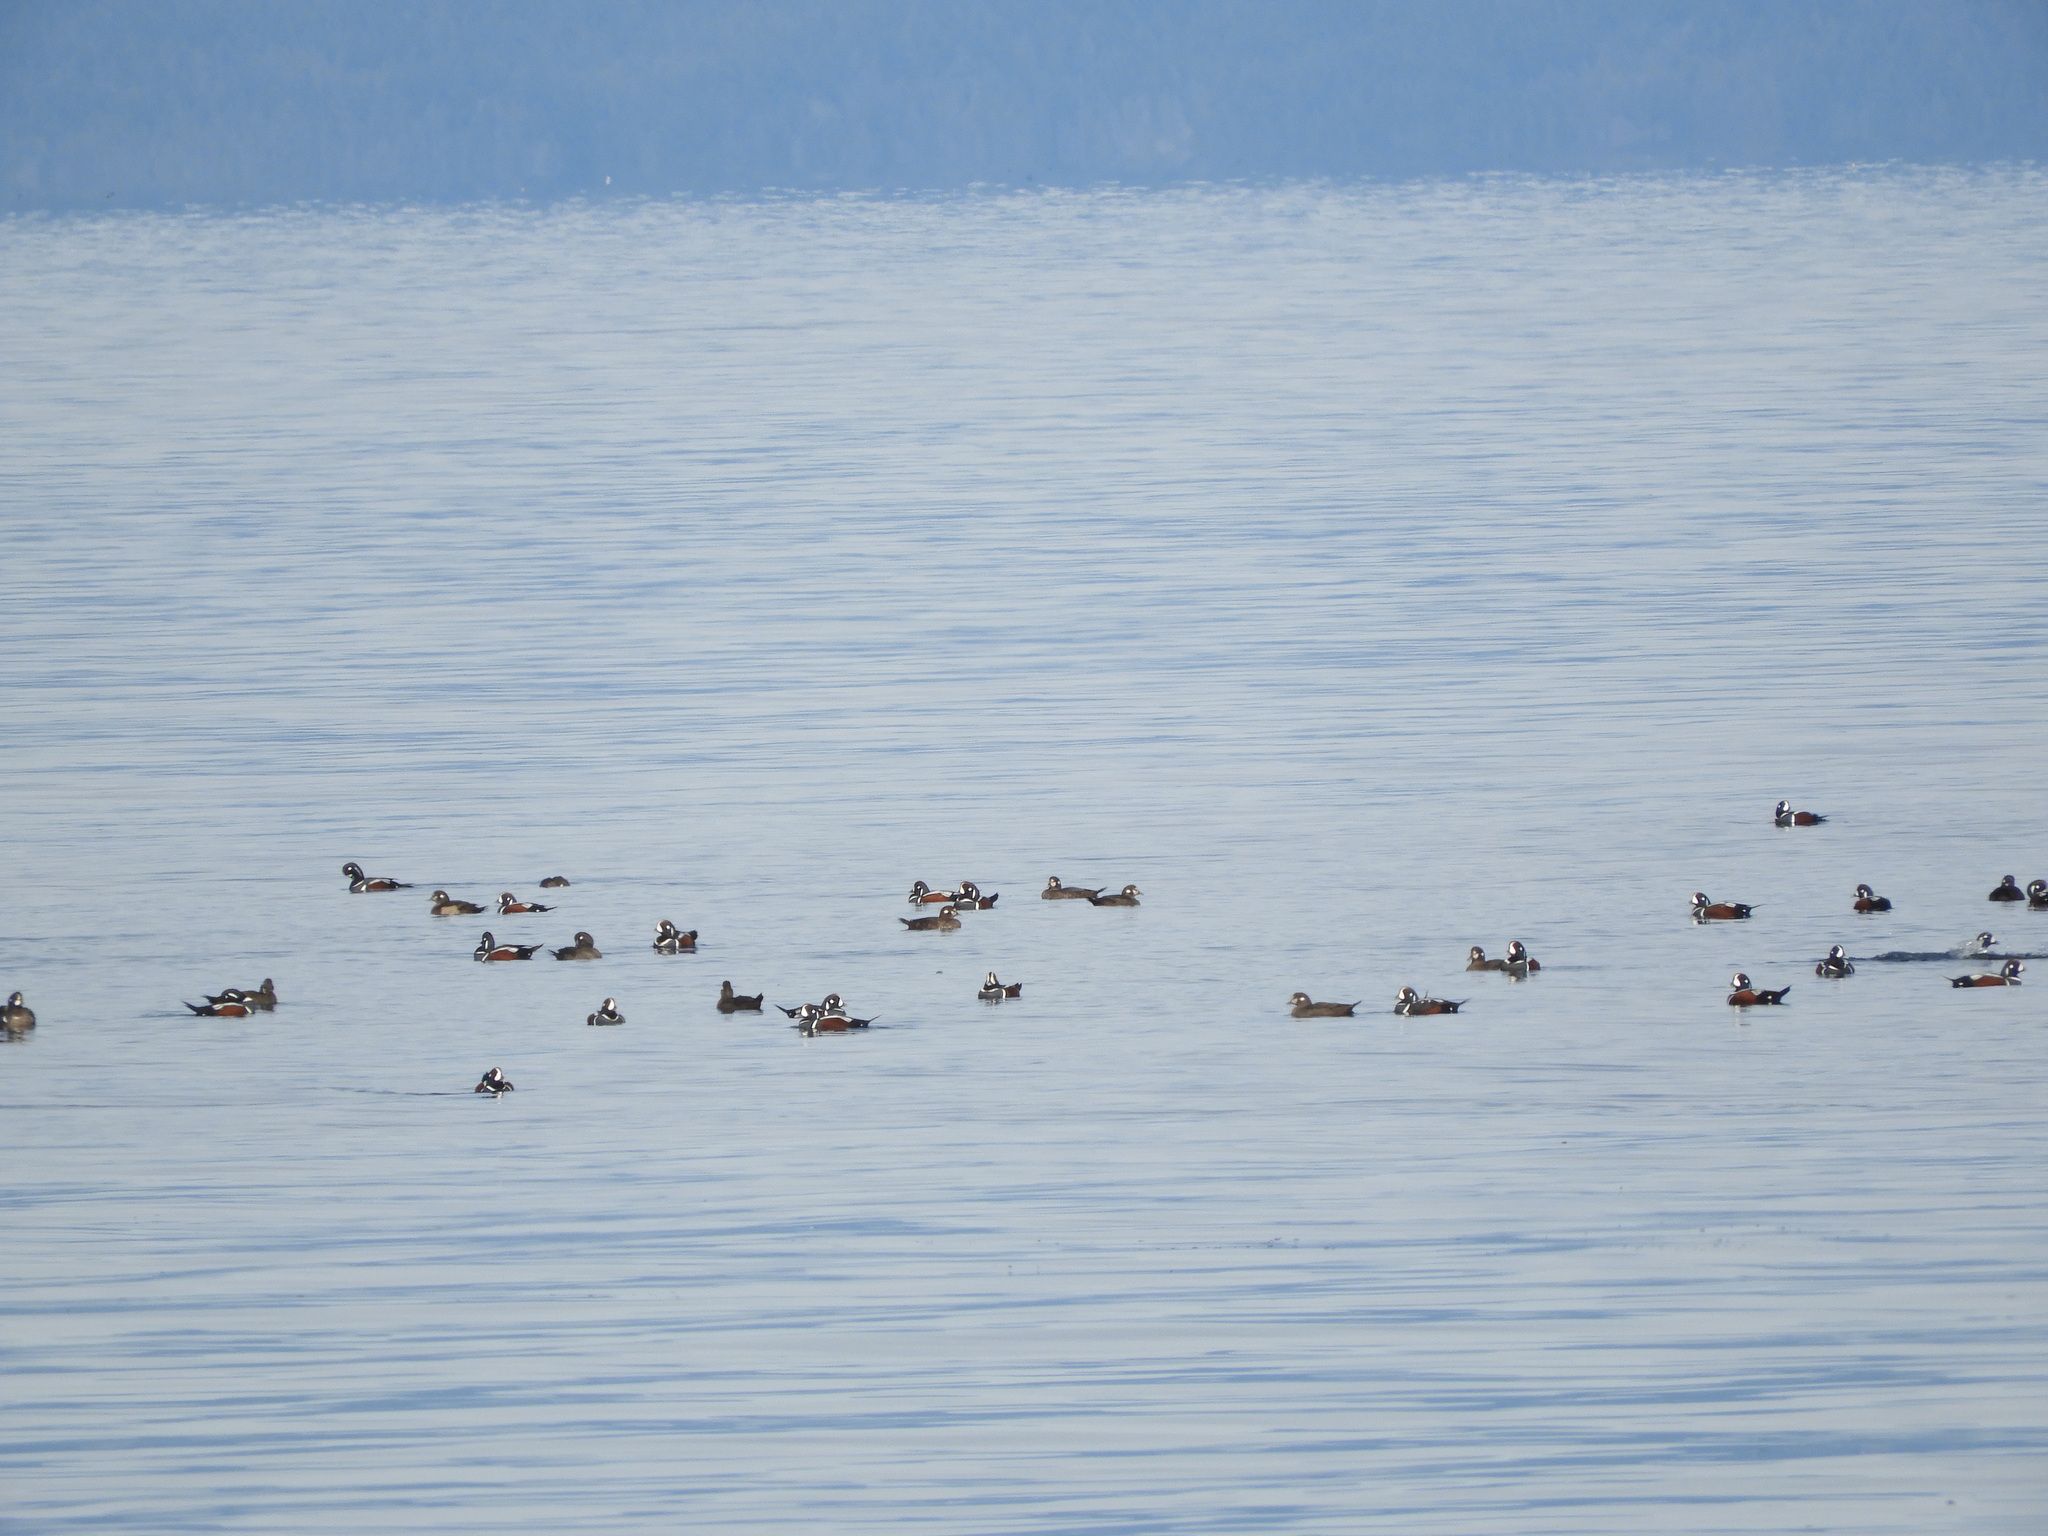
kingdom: Animalia
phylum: Chordata
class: Aves
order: Anseriformes
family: Anatidae
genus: Histrionicus
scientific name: Histrionicus histrionicus
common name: Harlequin duck
